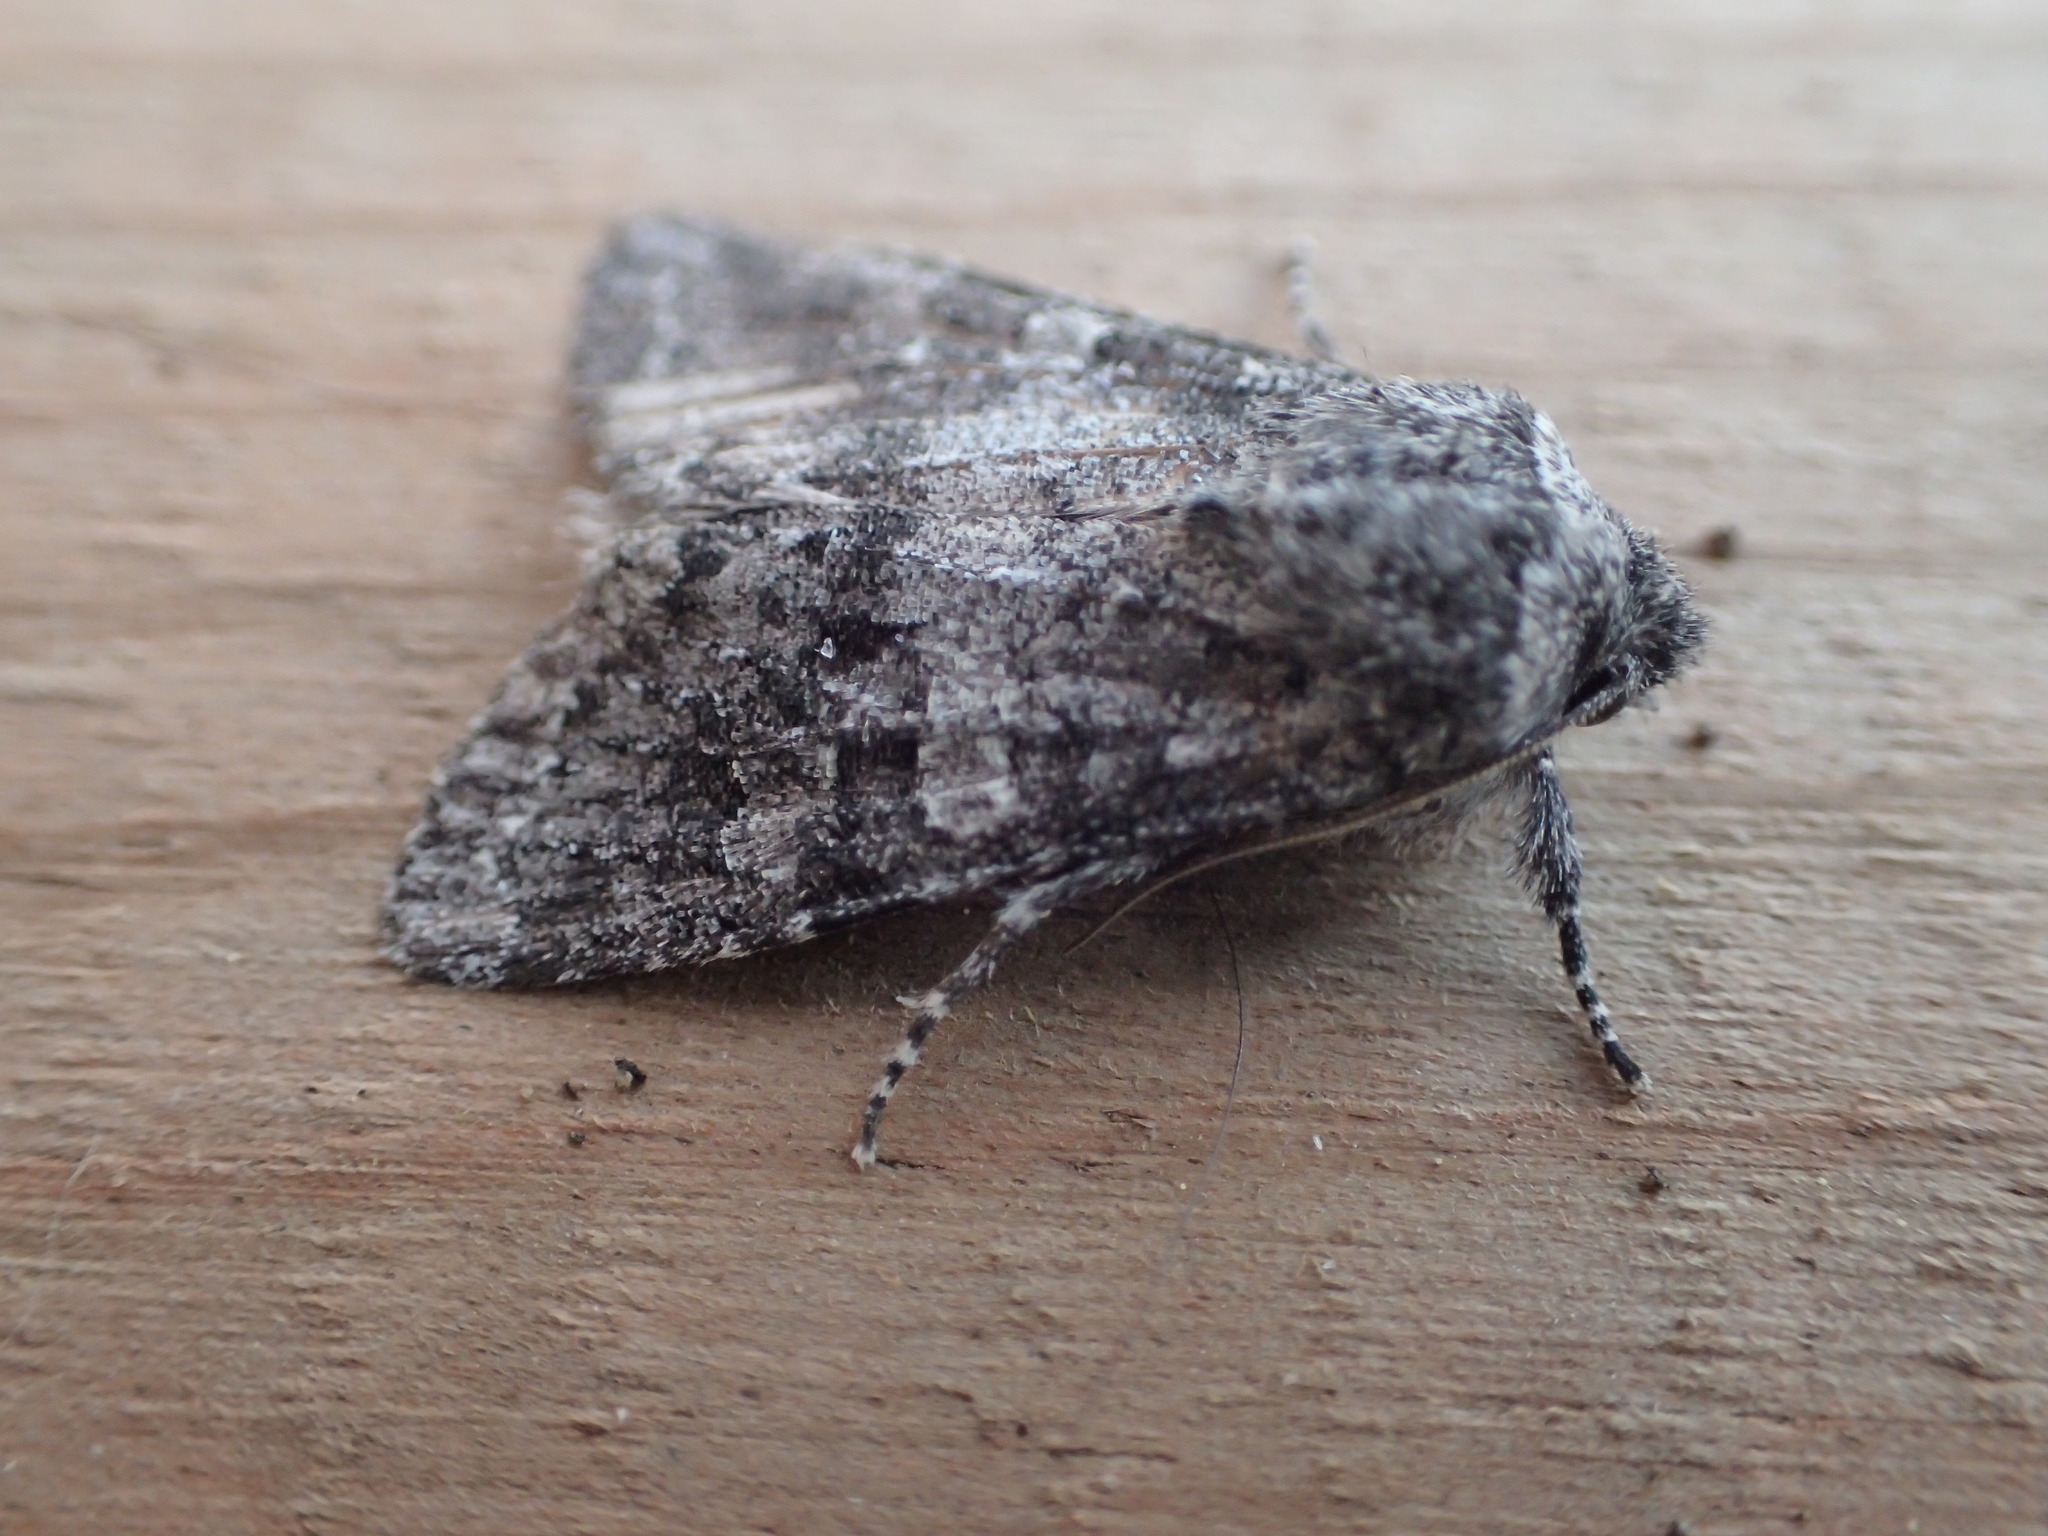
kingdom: Animalia
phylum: Arthropoda
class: Insecta
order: Lepidoptera
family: Noctuidae
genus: Egira
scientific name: Egira dolosa
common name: Lined black aspen cat.
